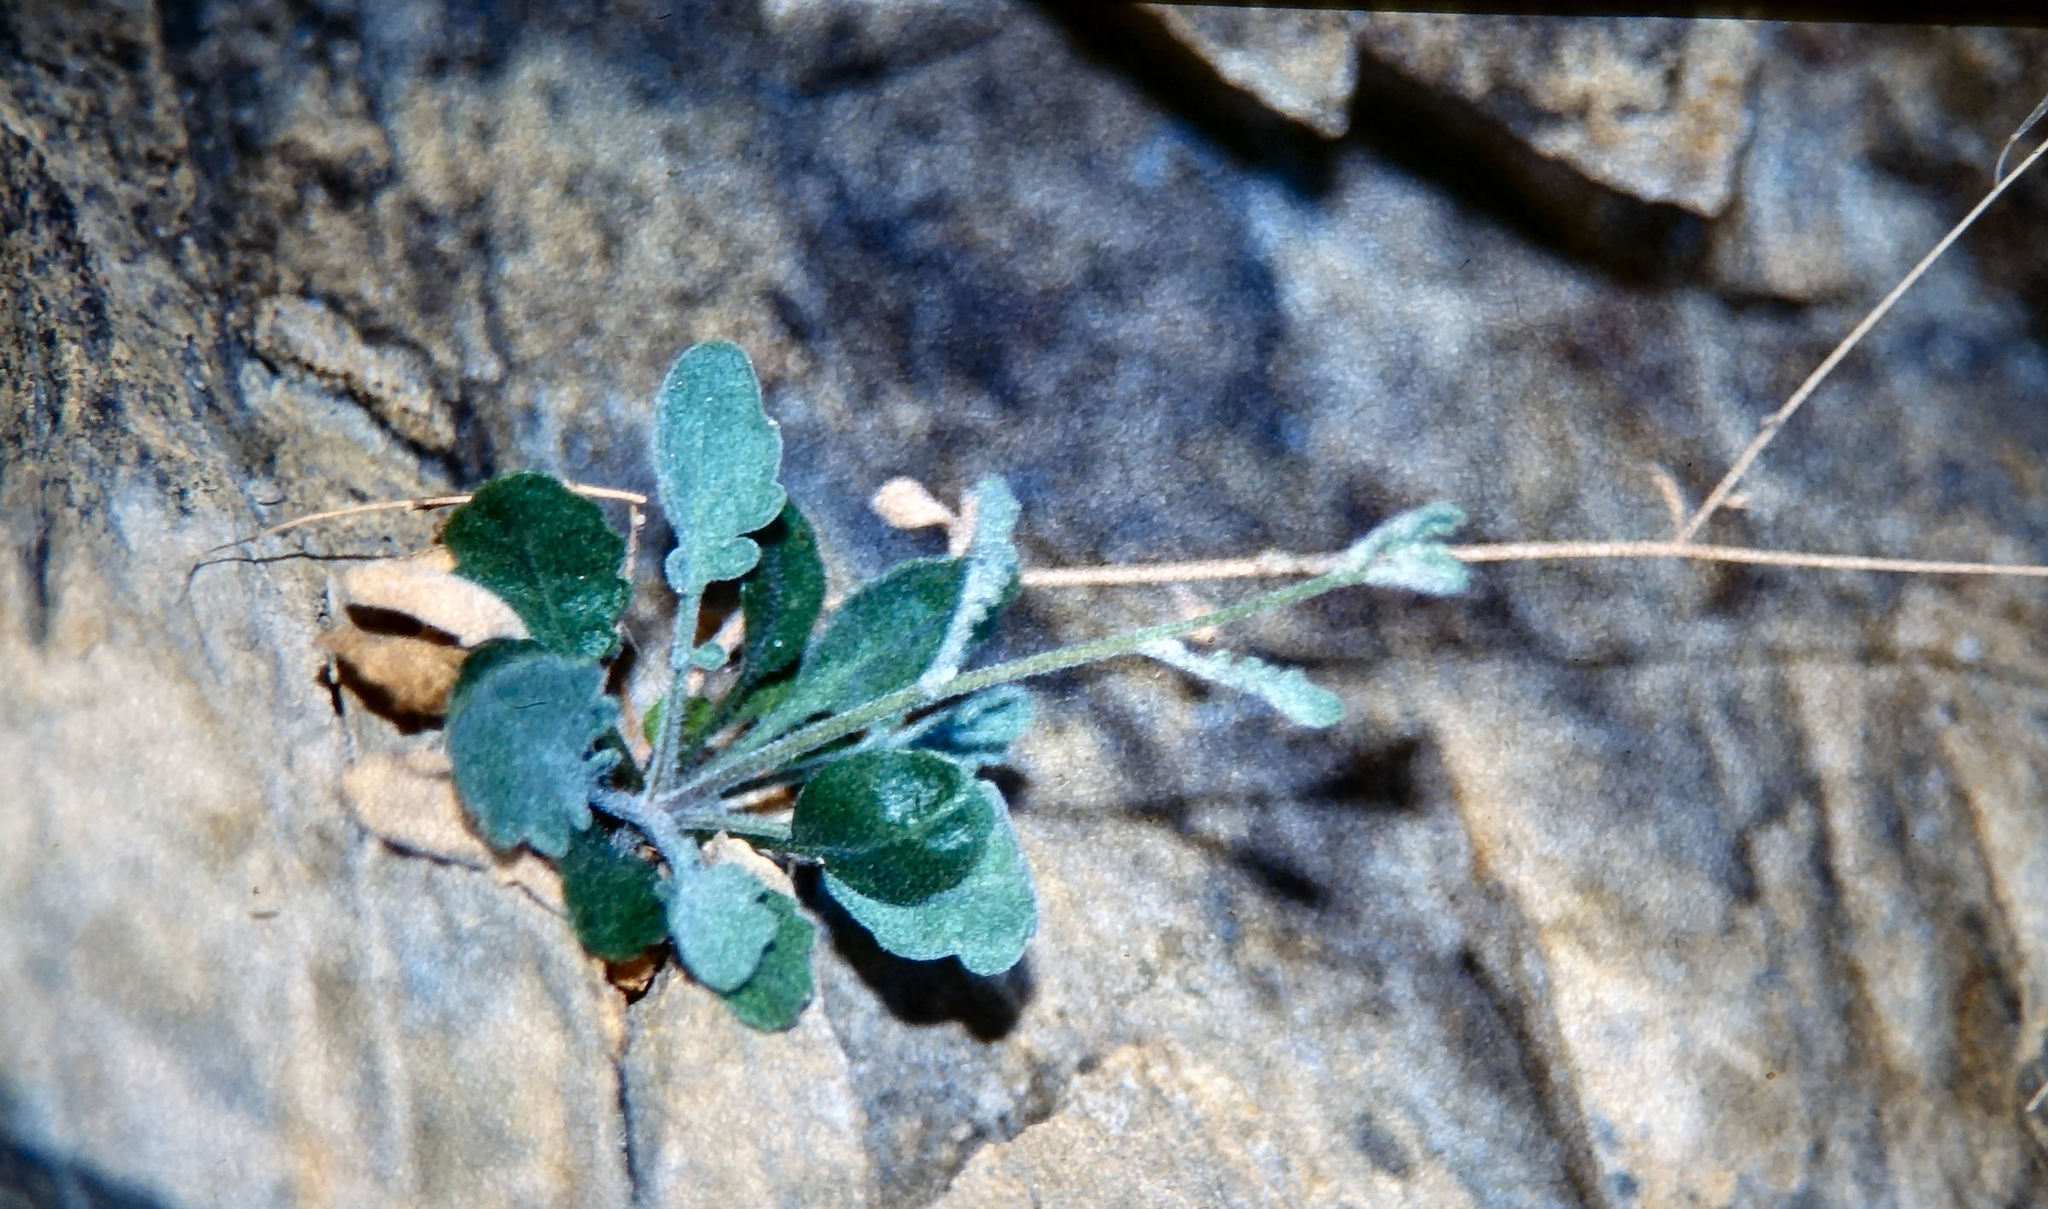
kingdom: Plantae
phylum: Tracheophyta
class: Magnoliopsida
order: Brassicales
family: Brassicaceae
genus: Pachycladon
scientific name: Pachycladon cheesemanii
